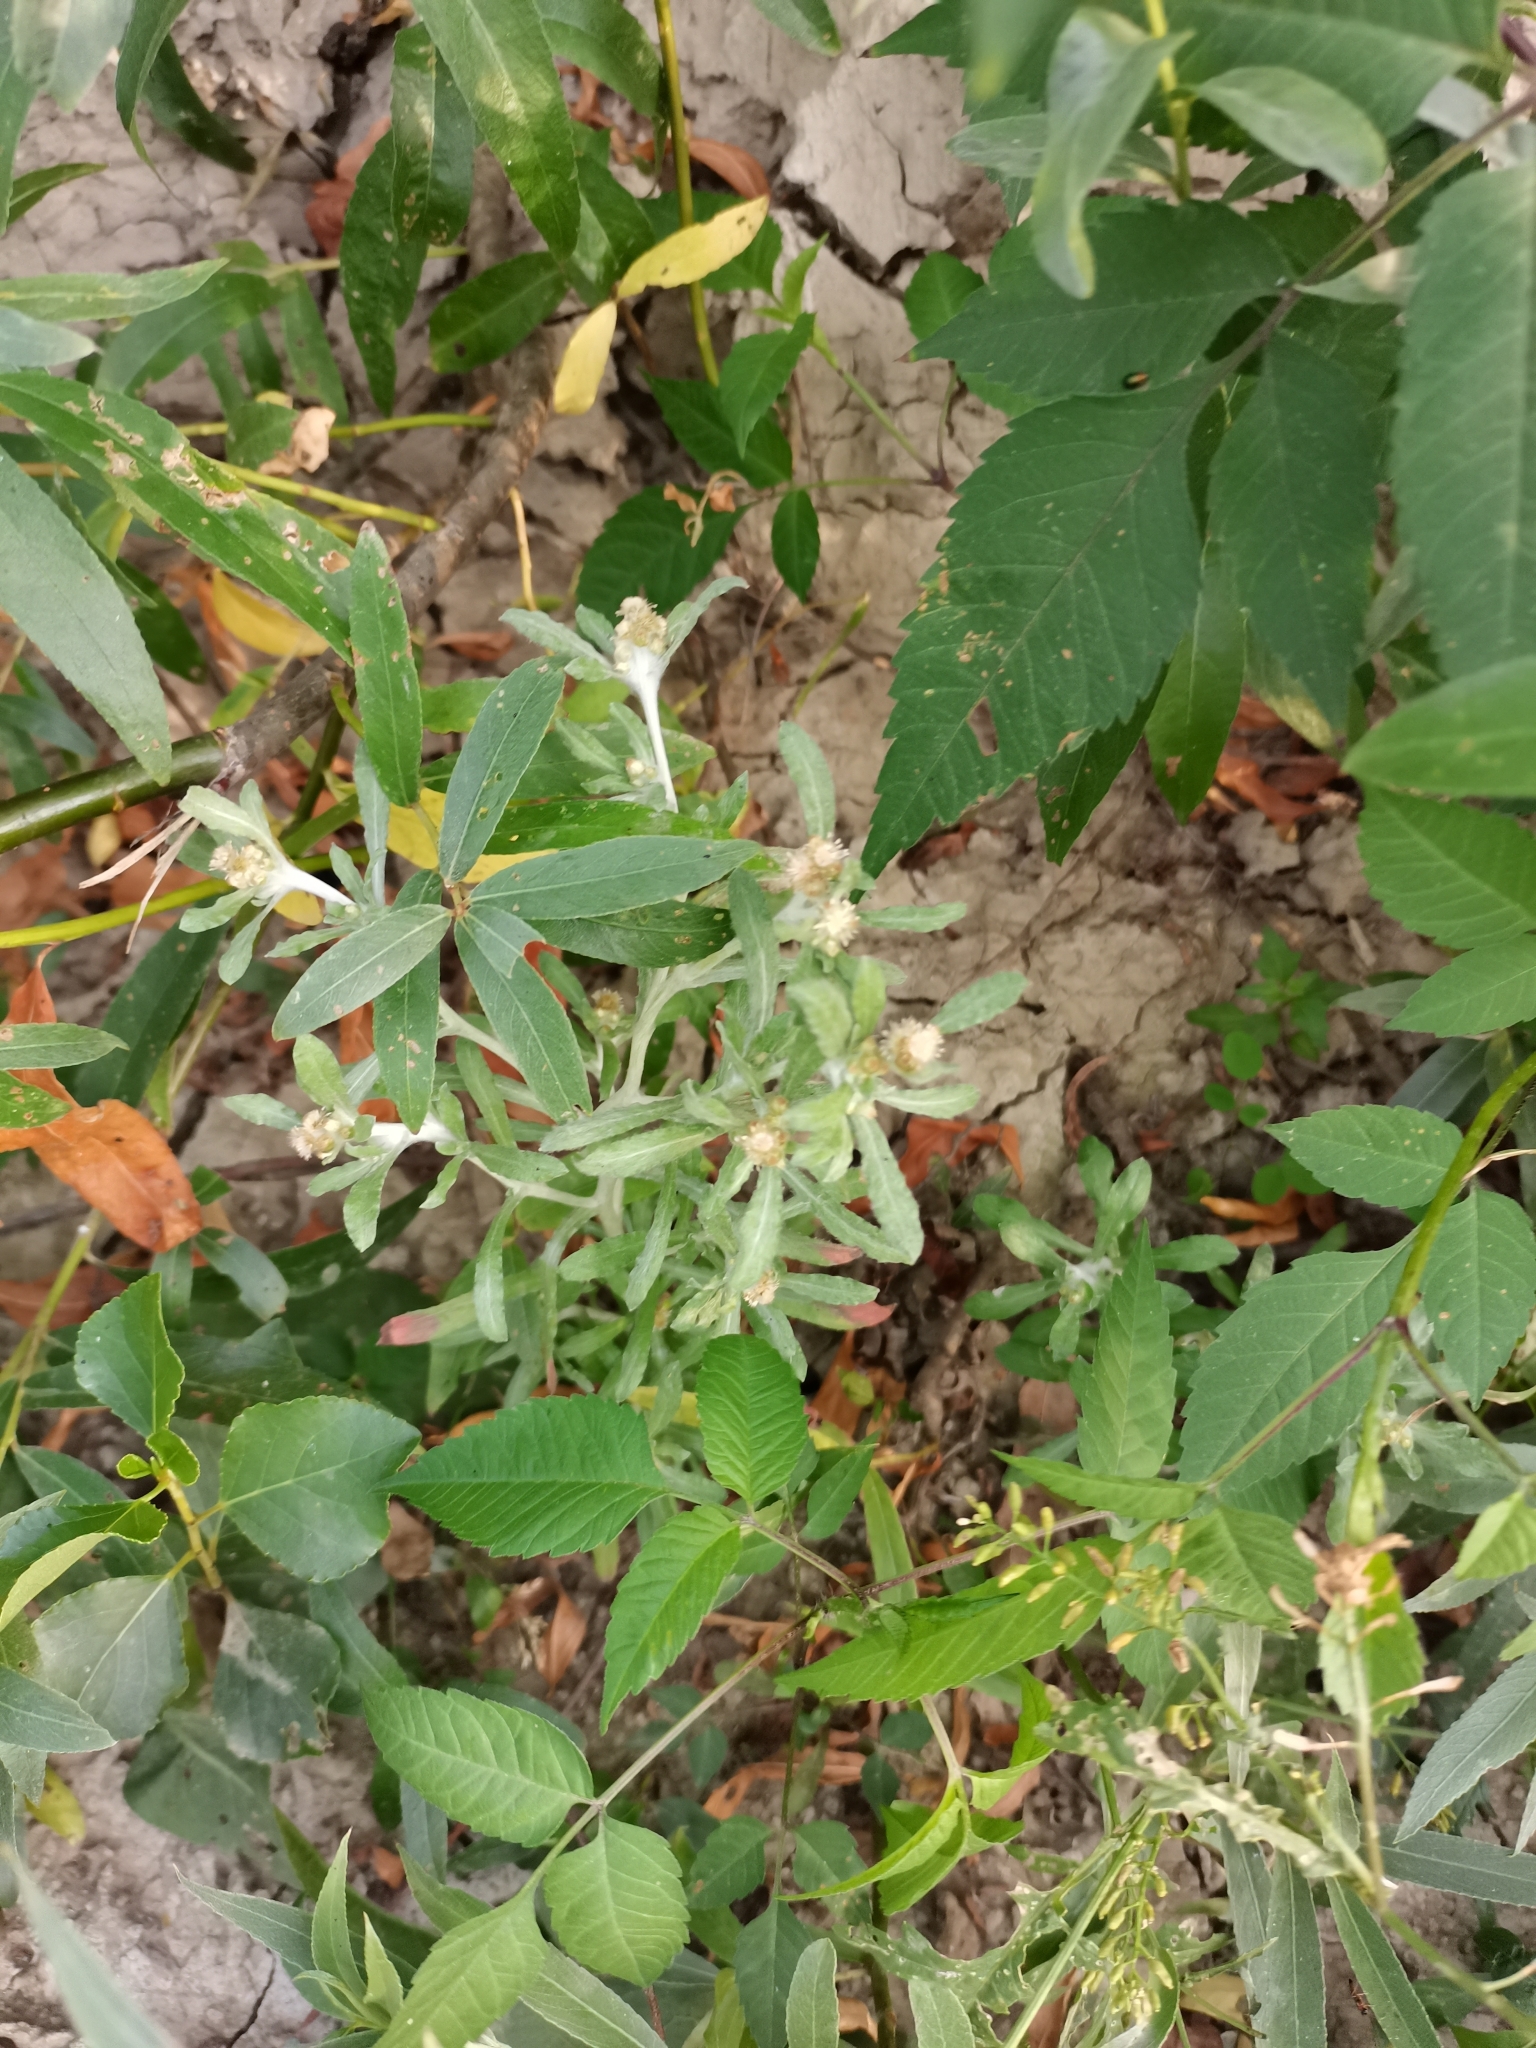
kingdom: Plantae
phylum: Tracheophyta
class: Magnoliopsida
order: Asterales
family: Asteraceae
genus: Gnaphalium
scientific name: Gnaphalium uliginosum
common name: Marsh cudweed
